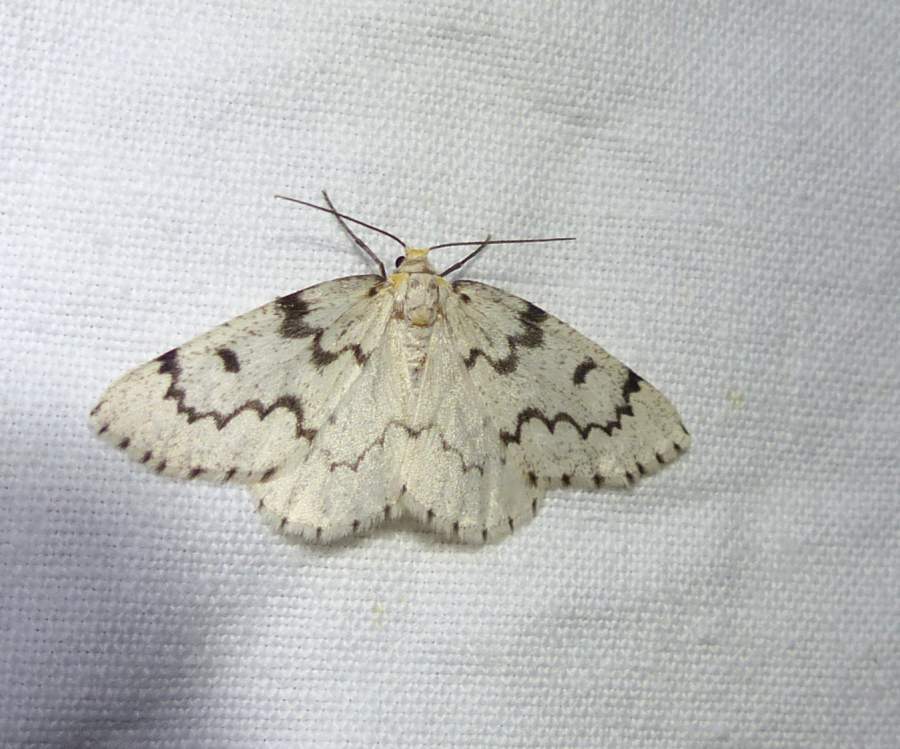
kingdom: Animalia
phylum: Arthropoda
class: Insecta
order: Lepidoptera
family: Geometridae
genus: Nepytia
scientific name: Nepytia canosaria
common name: False hemlock looper
